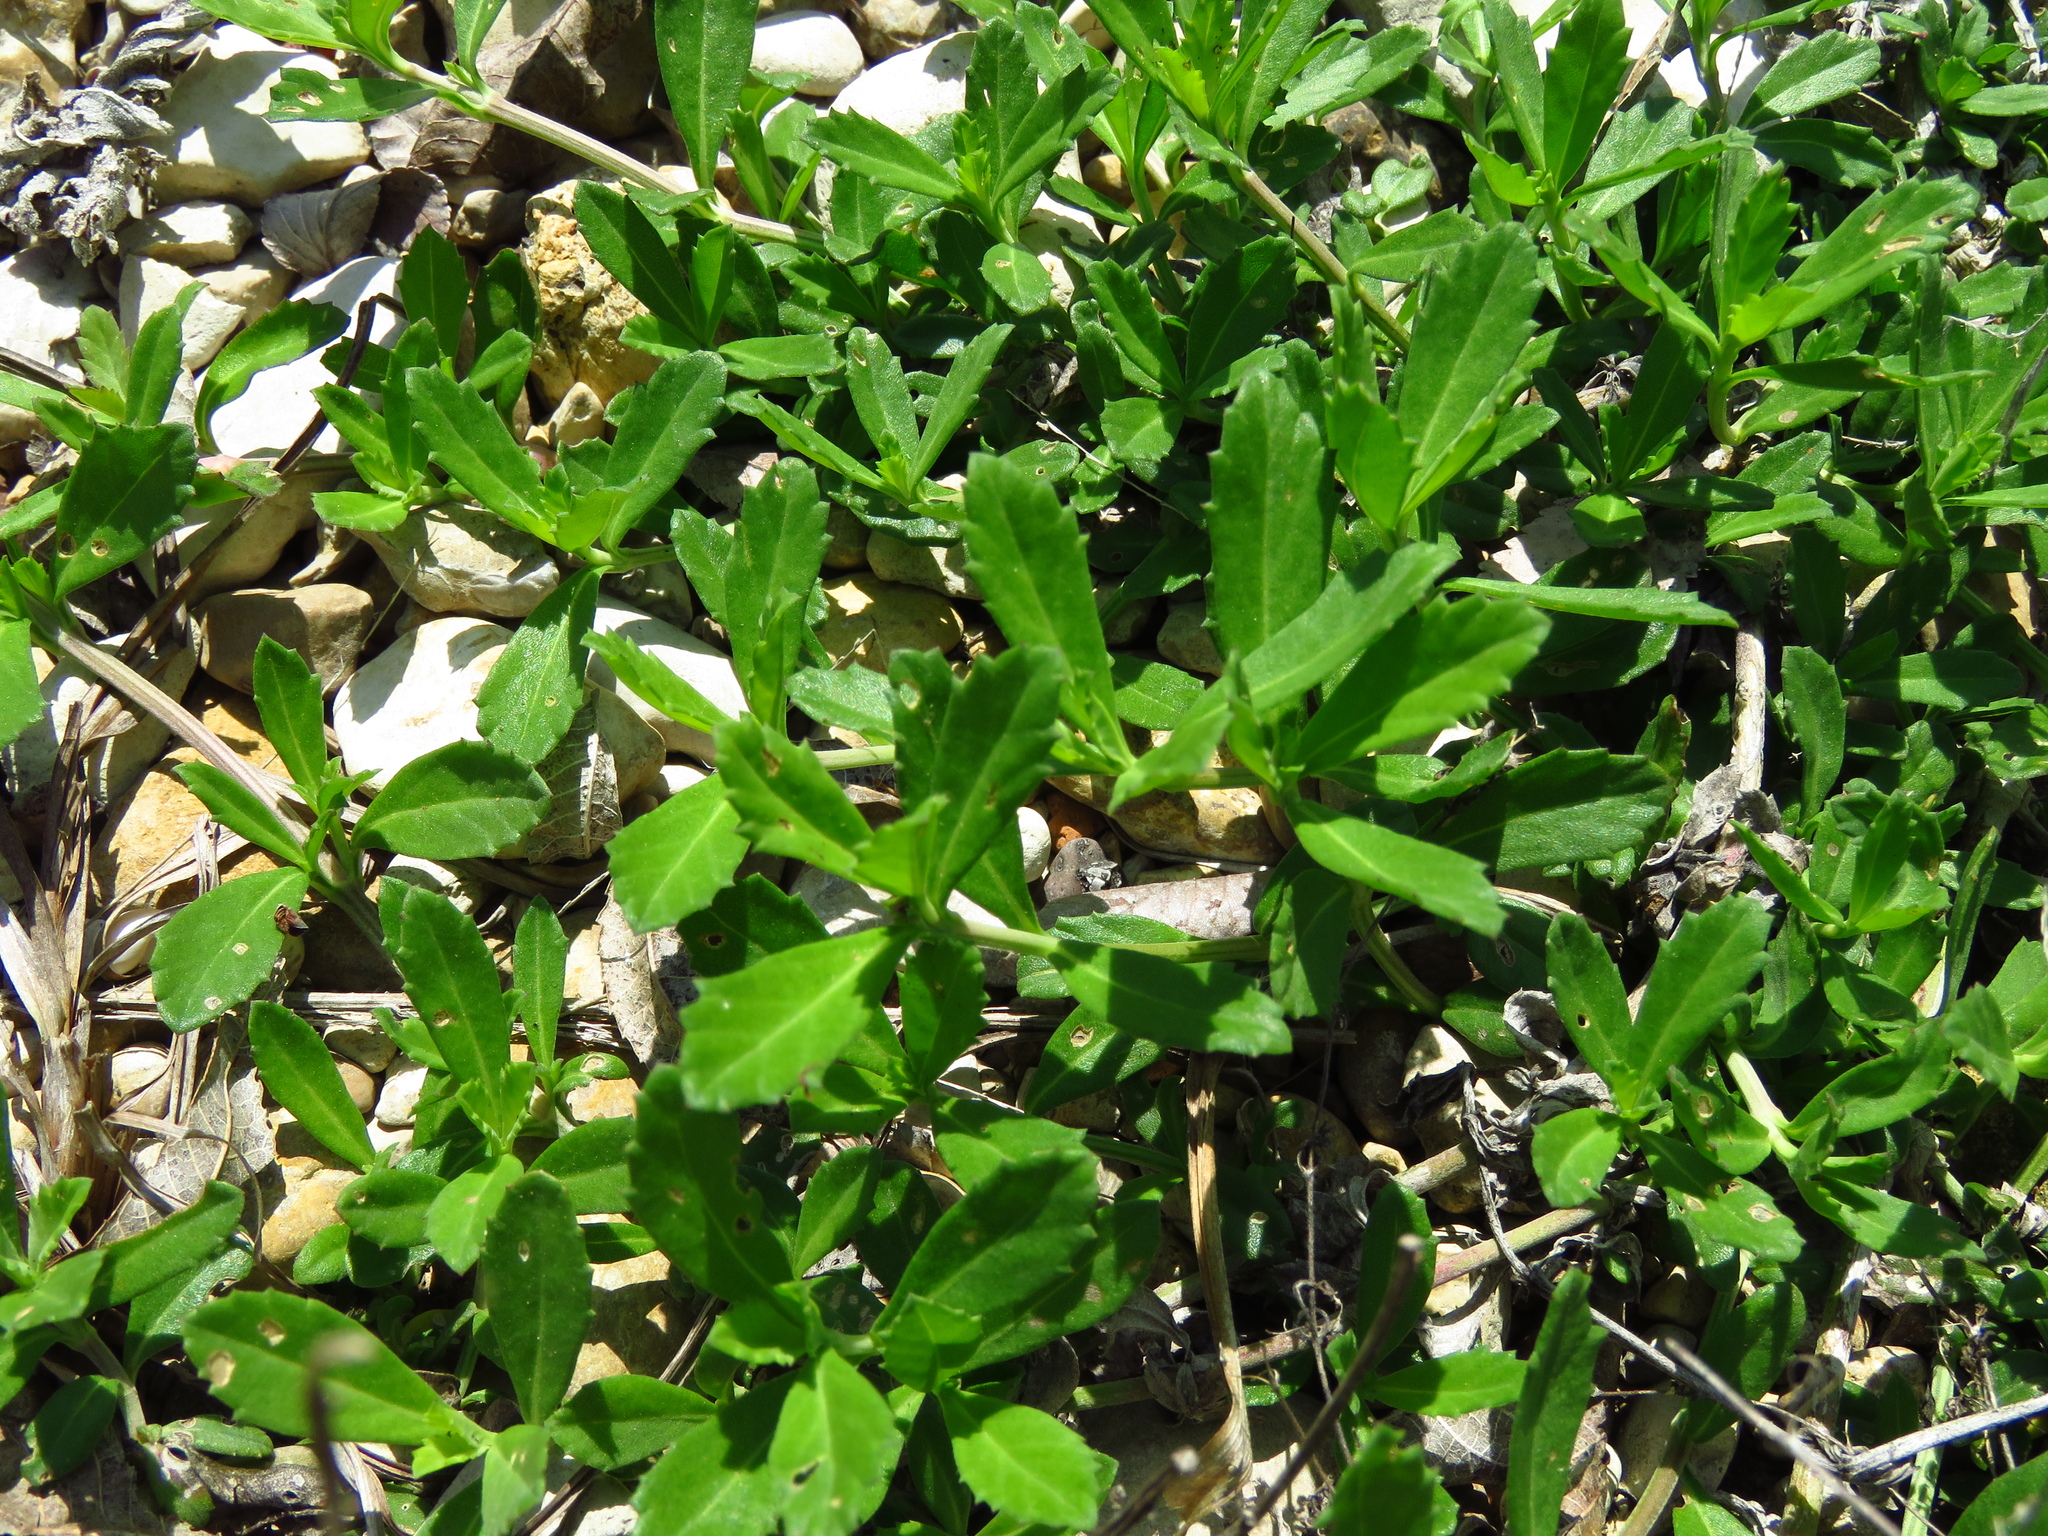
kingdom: Plantae
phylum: Tracheophyta
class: Magnoliopsida
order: Lamiales
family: Verbenaceae
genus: Phyla
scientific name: Phyla nodiflora
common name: Frogfruit
